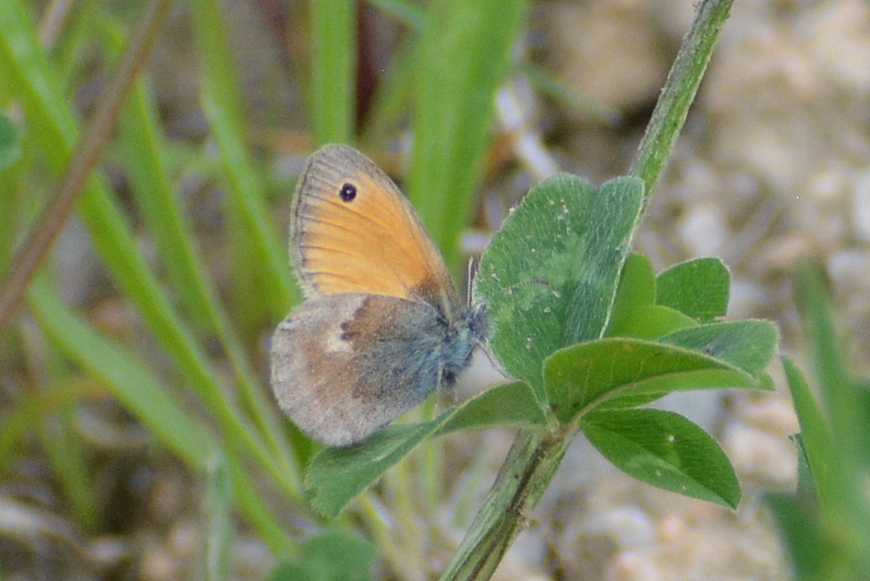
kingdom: Animalia
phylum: Arthropoda
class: Insecta
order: Lepidoptera
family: Nymphalidae
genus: Coenonympha
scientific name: Coenonympha pamphilus
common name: Small heath
